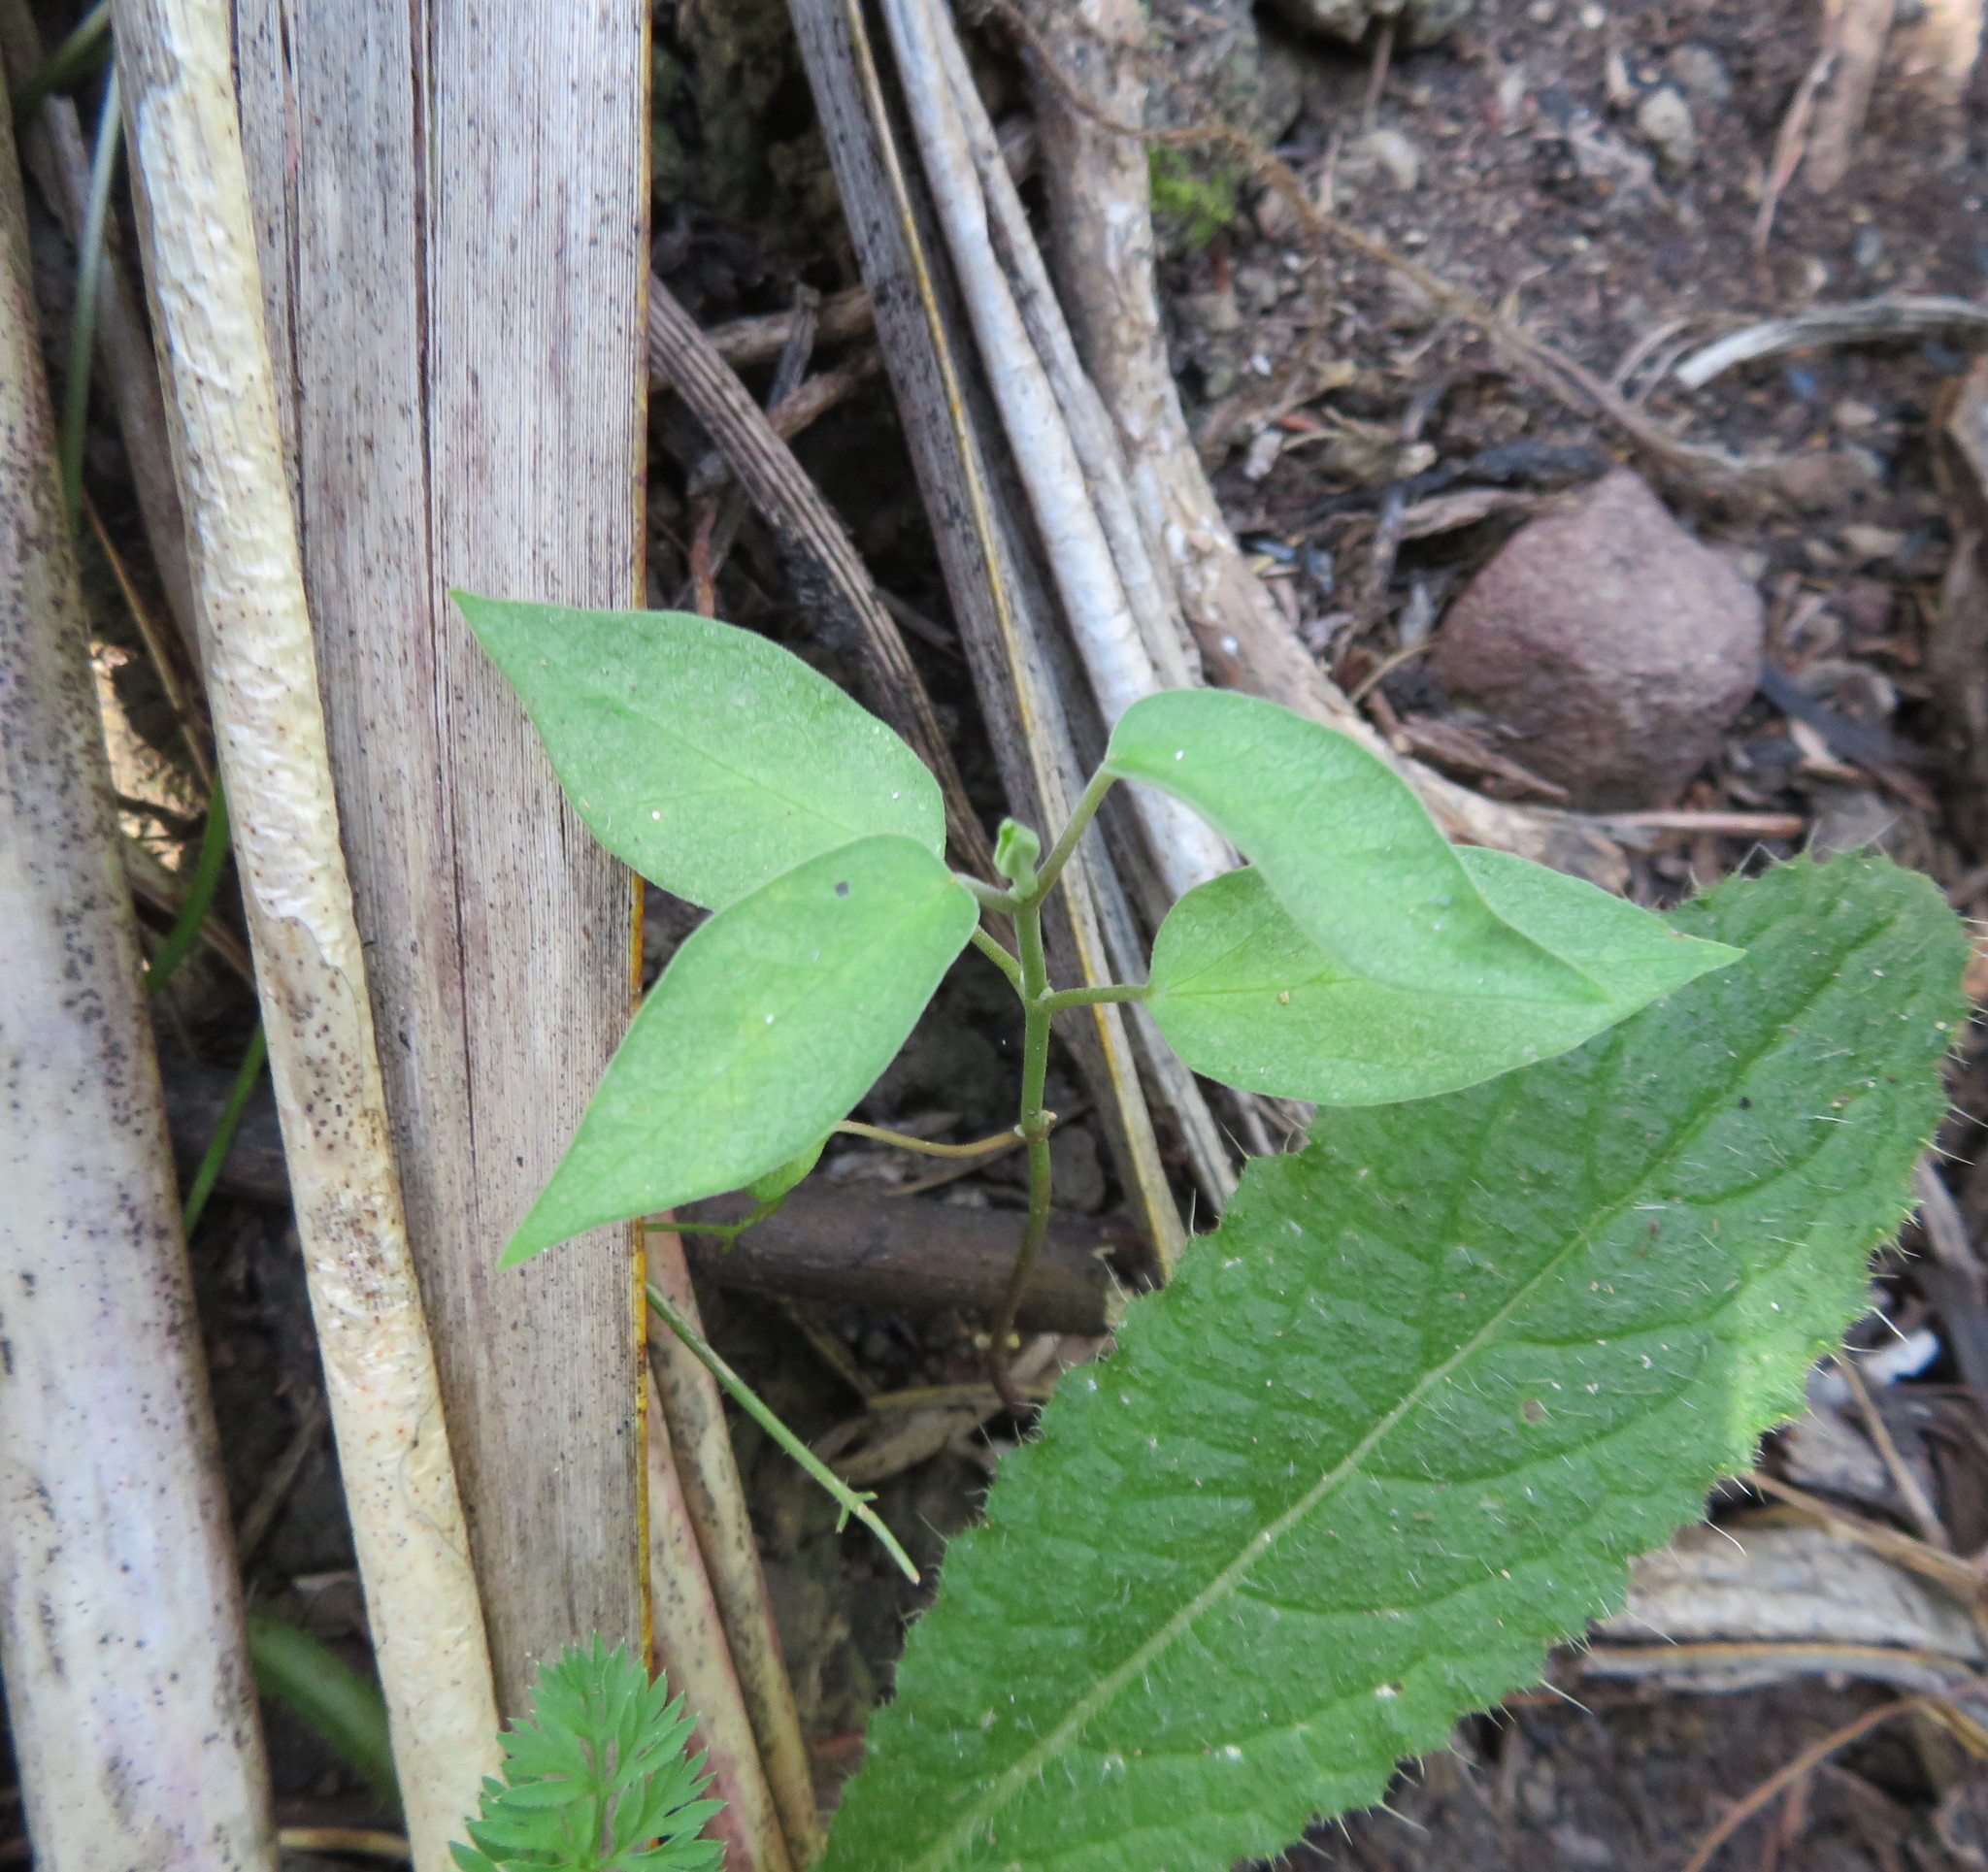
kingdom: Plantae
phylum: Tracheophyta
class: Magnoliopsida
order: Gentianales
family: Apocynaceae
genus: Araujia
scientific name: Araujia sericifera
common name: White bladderflower
